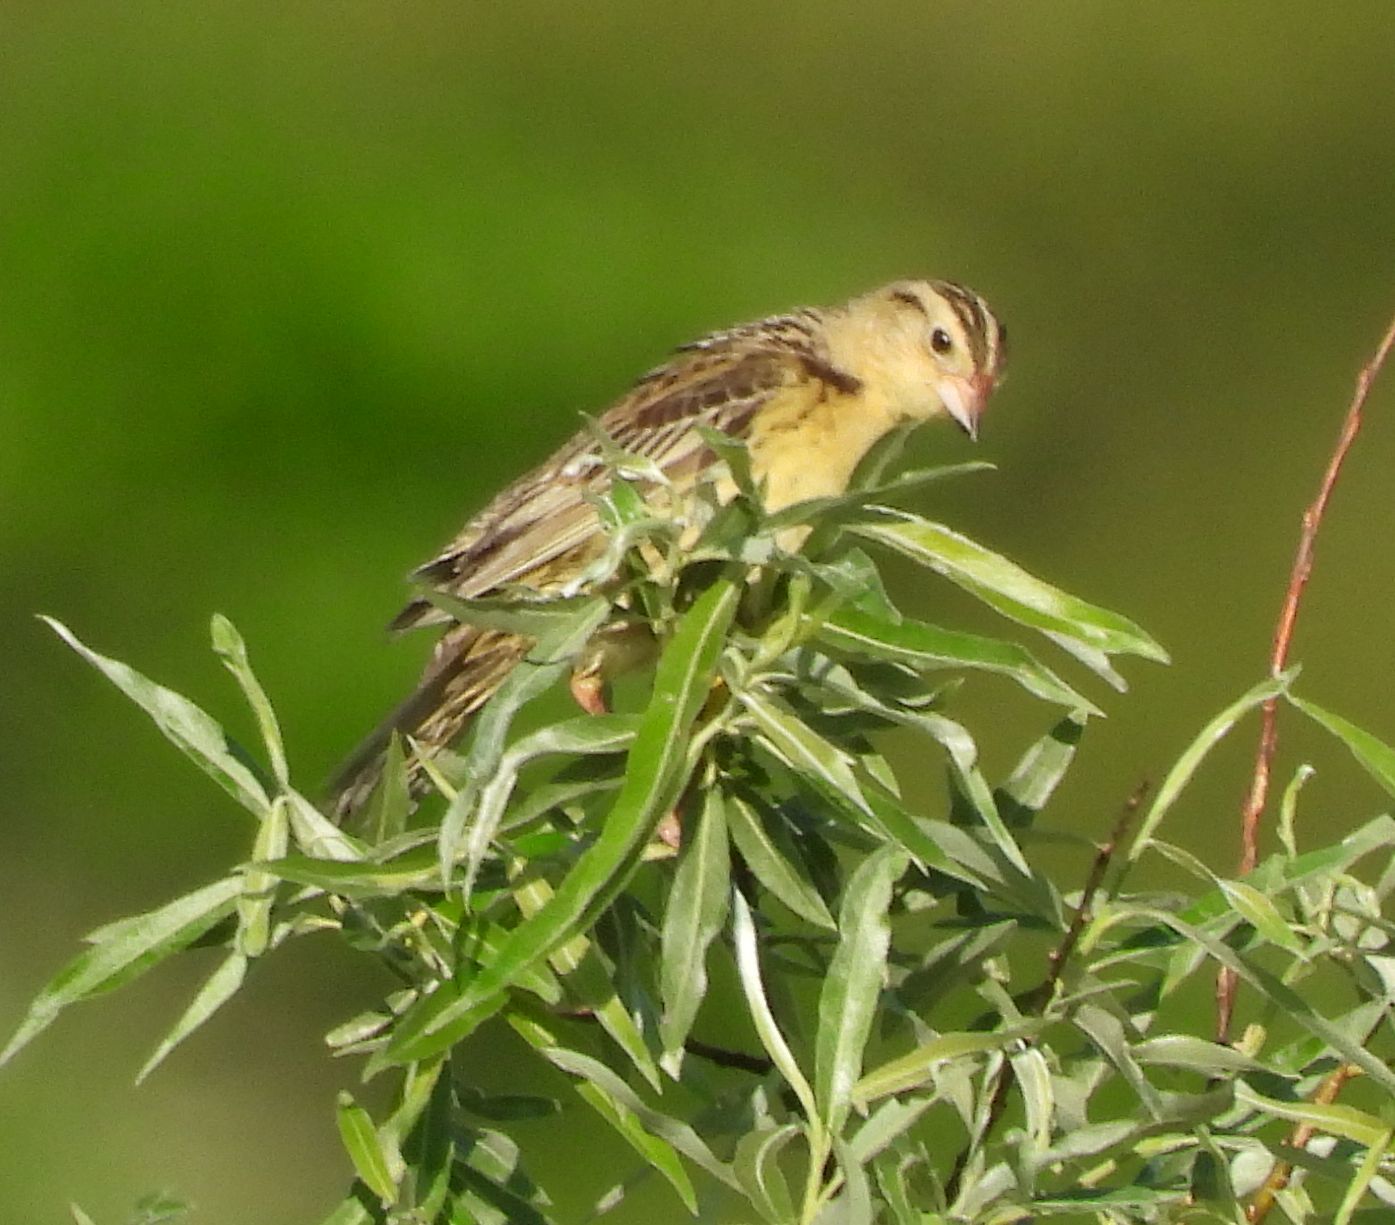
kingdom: Animalia
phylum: Chordata
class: Aves
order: Passeriformes
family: Icteridae
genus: Dolichonyx
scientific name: Dolichonyx oryzivorus
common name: Bobolink
